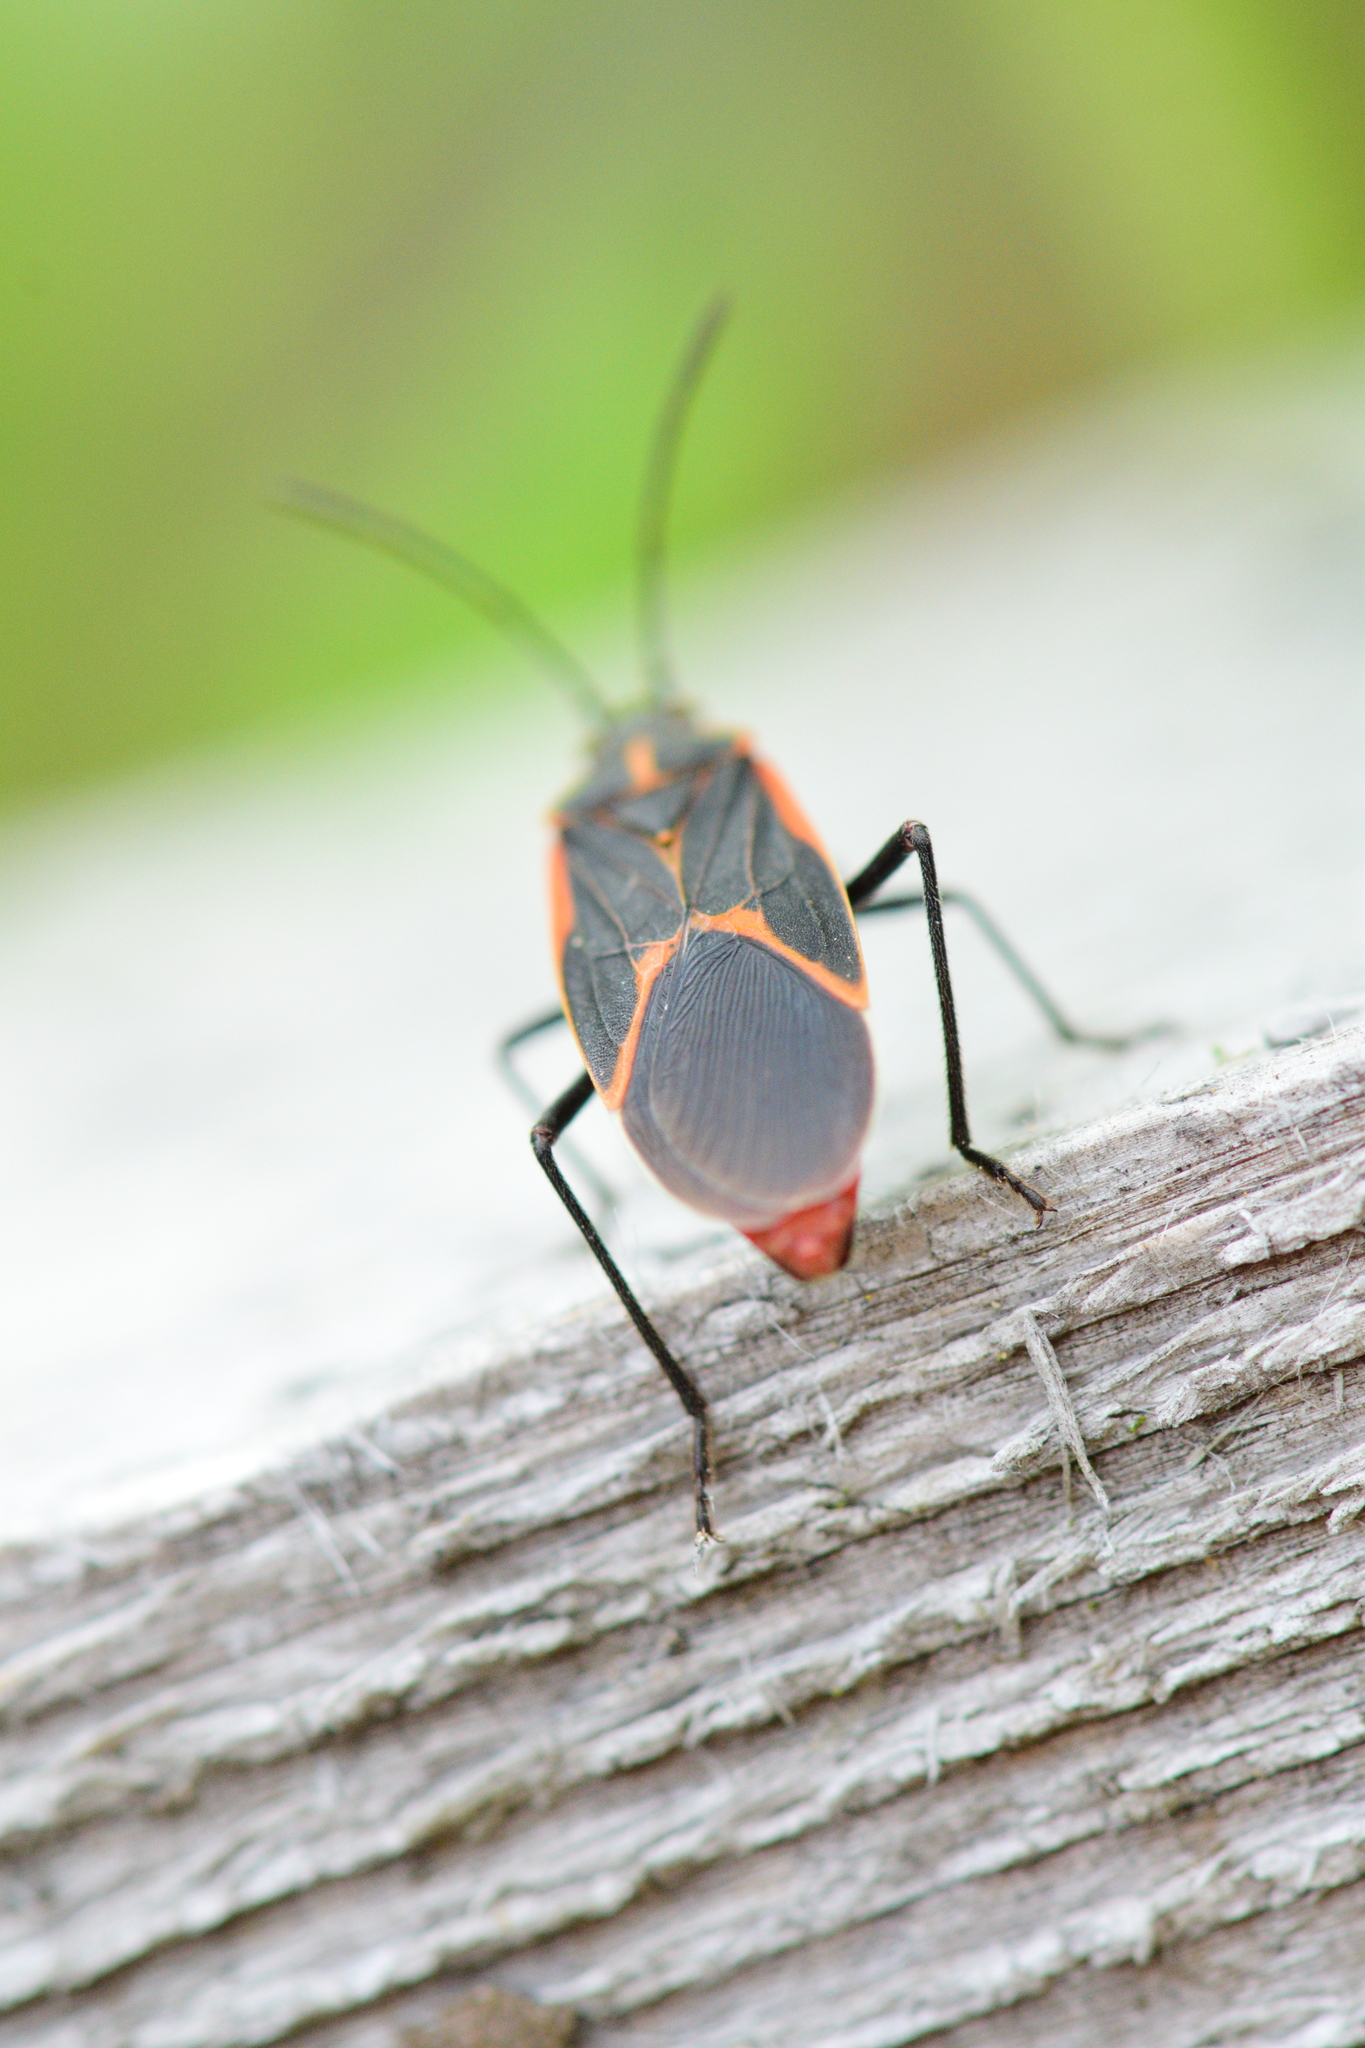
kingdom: Animalia
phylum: Arthropoda
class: Insecta
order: Hemiptera
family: Rhopalidae
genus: Boisea
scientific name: Boisea trivittata
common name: Boxelder bug
